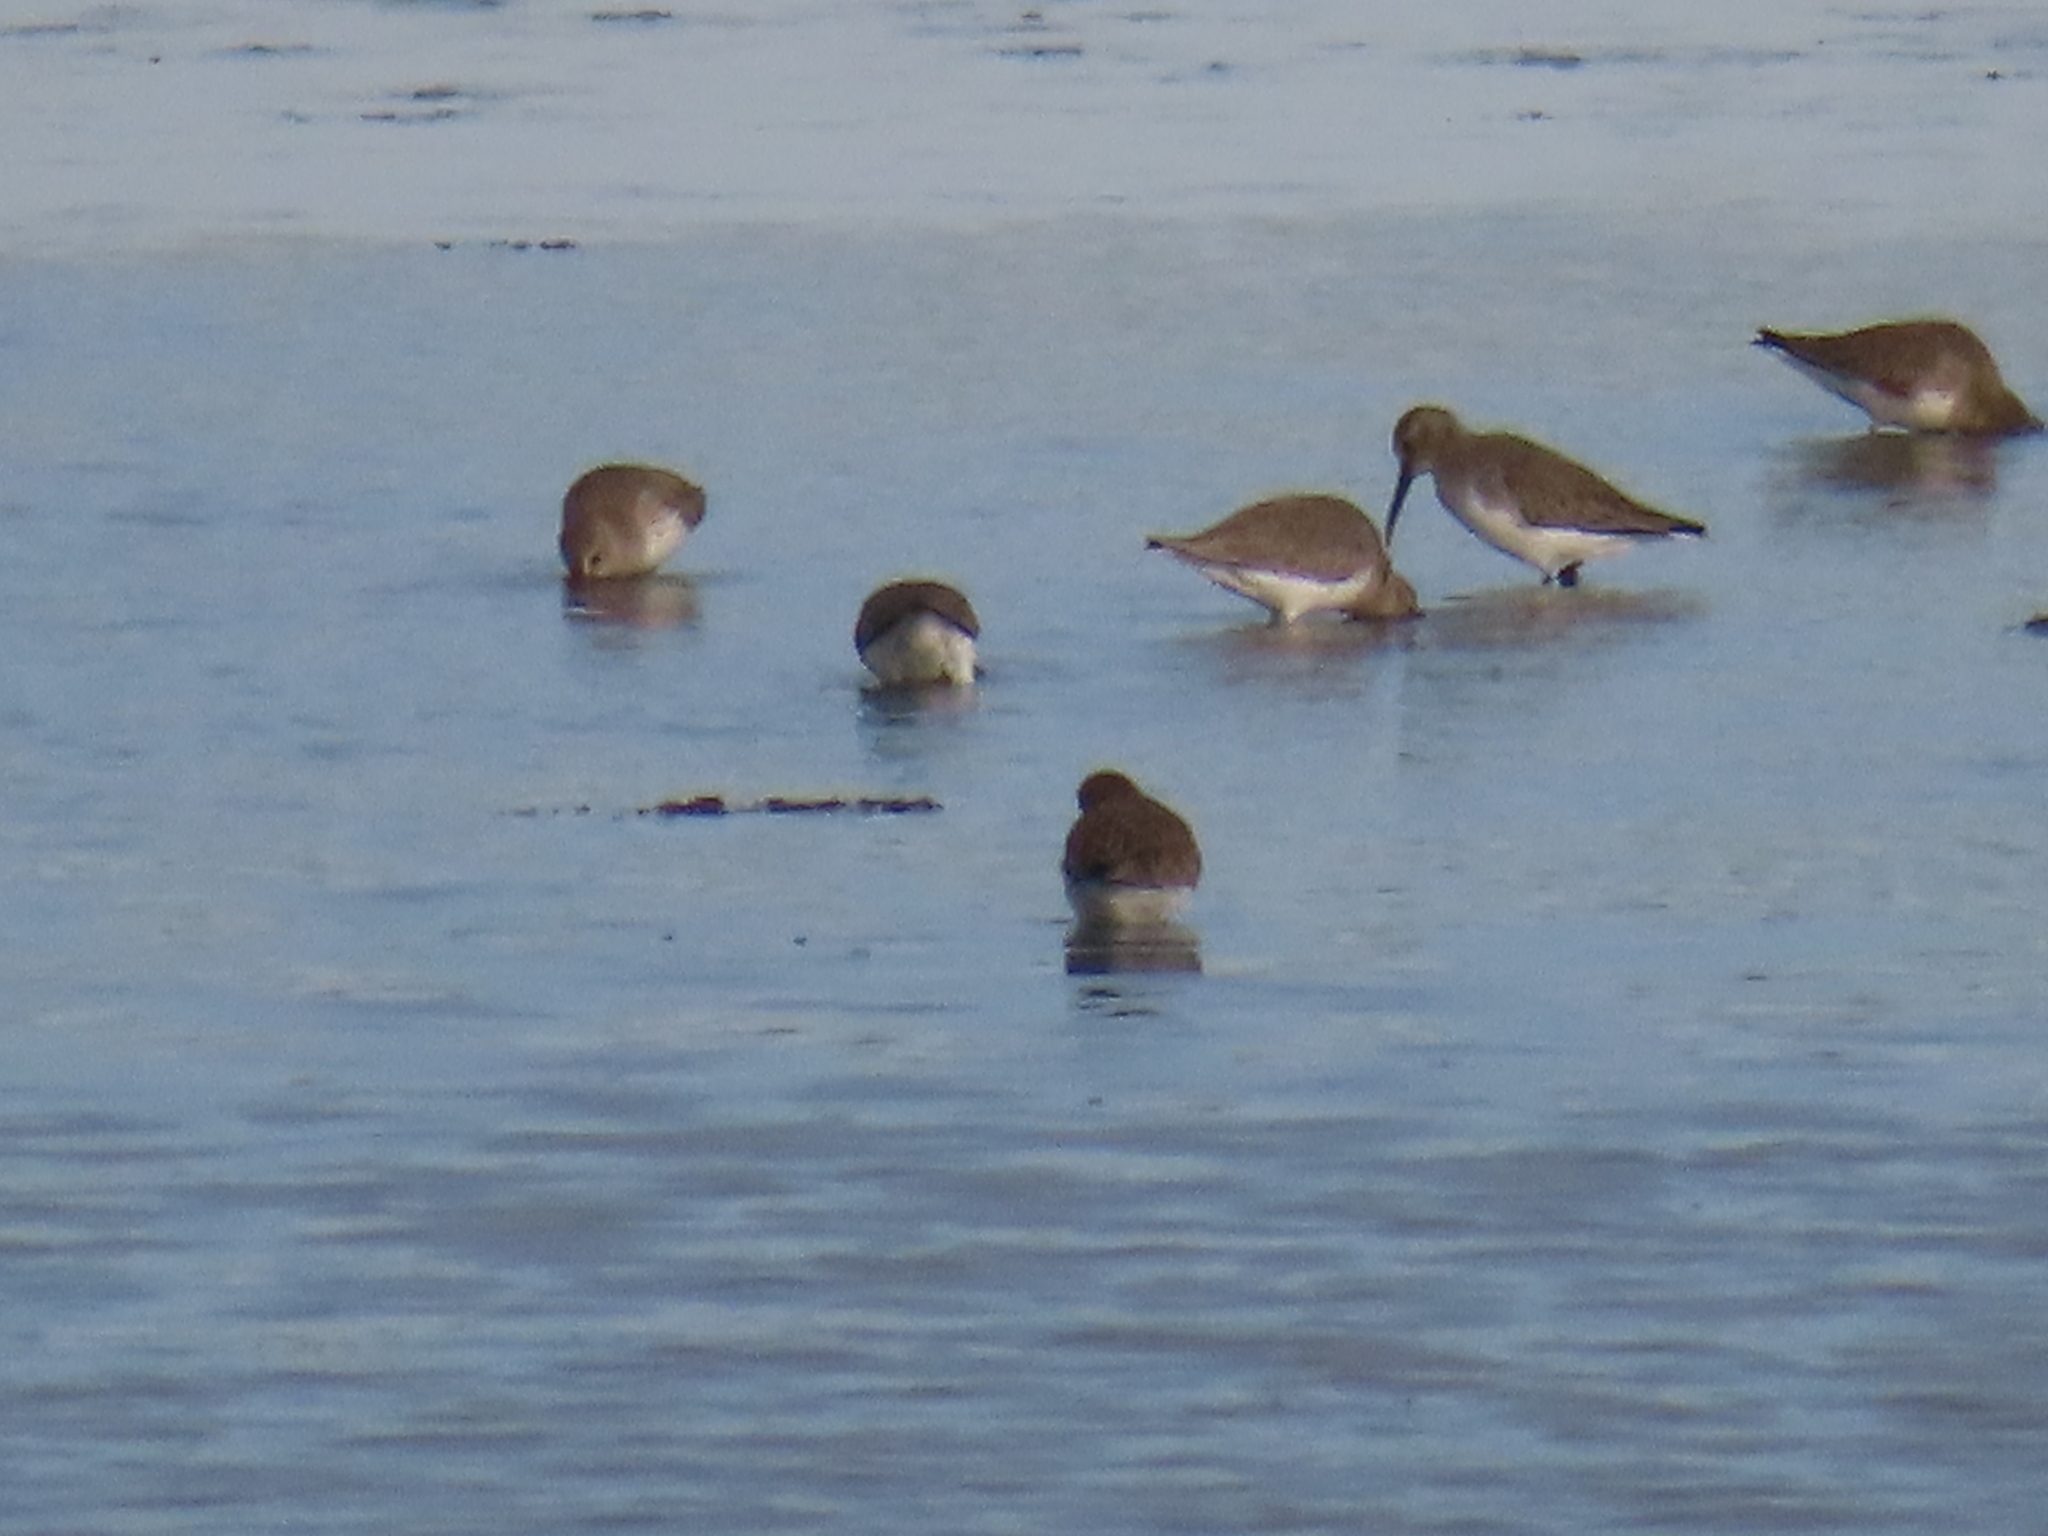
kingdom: Animalia
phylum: Chordata
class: Aves
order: Charadriiformes
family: Scolopacidae
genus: Calidris
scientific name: Calidris alpina
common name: Dunlin
